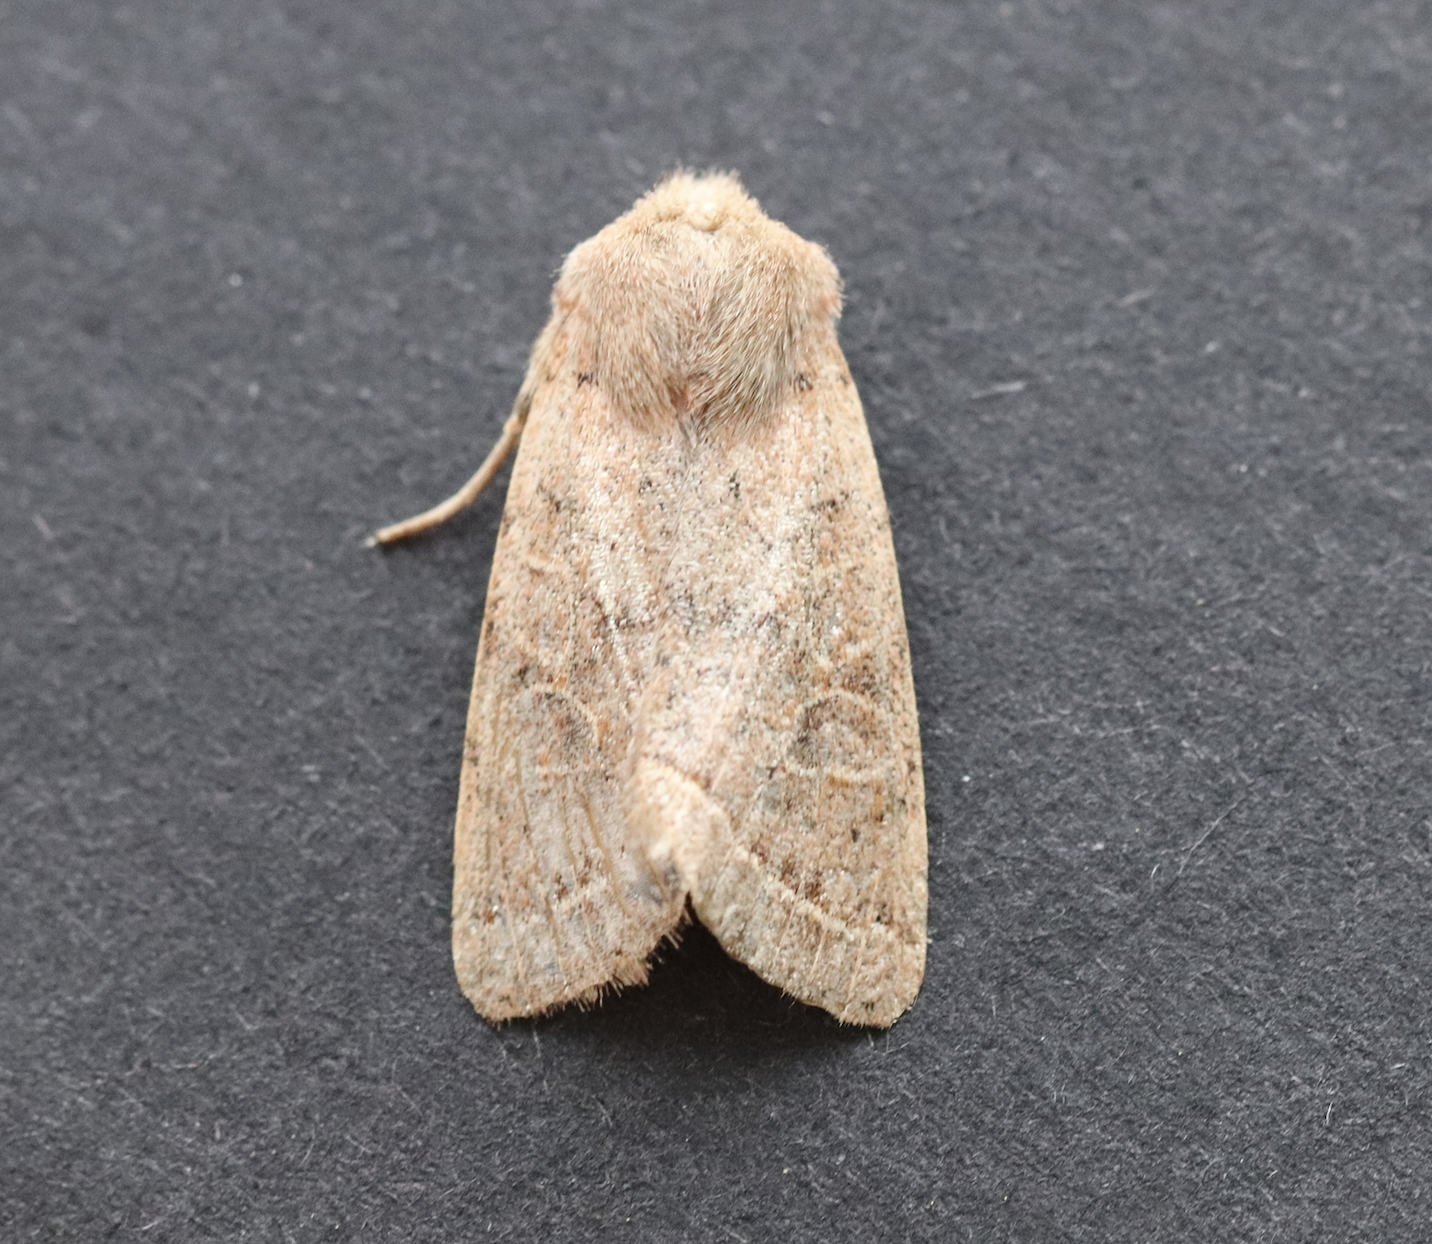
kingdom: Animalia
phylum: Arthropoda
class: Insecta
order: Lepidoptera
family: Noctuidae
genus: Orthosia
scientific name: Orthosia cerasi
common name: Common quaker
